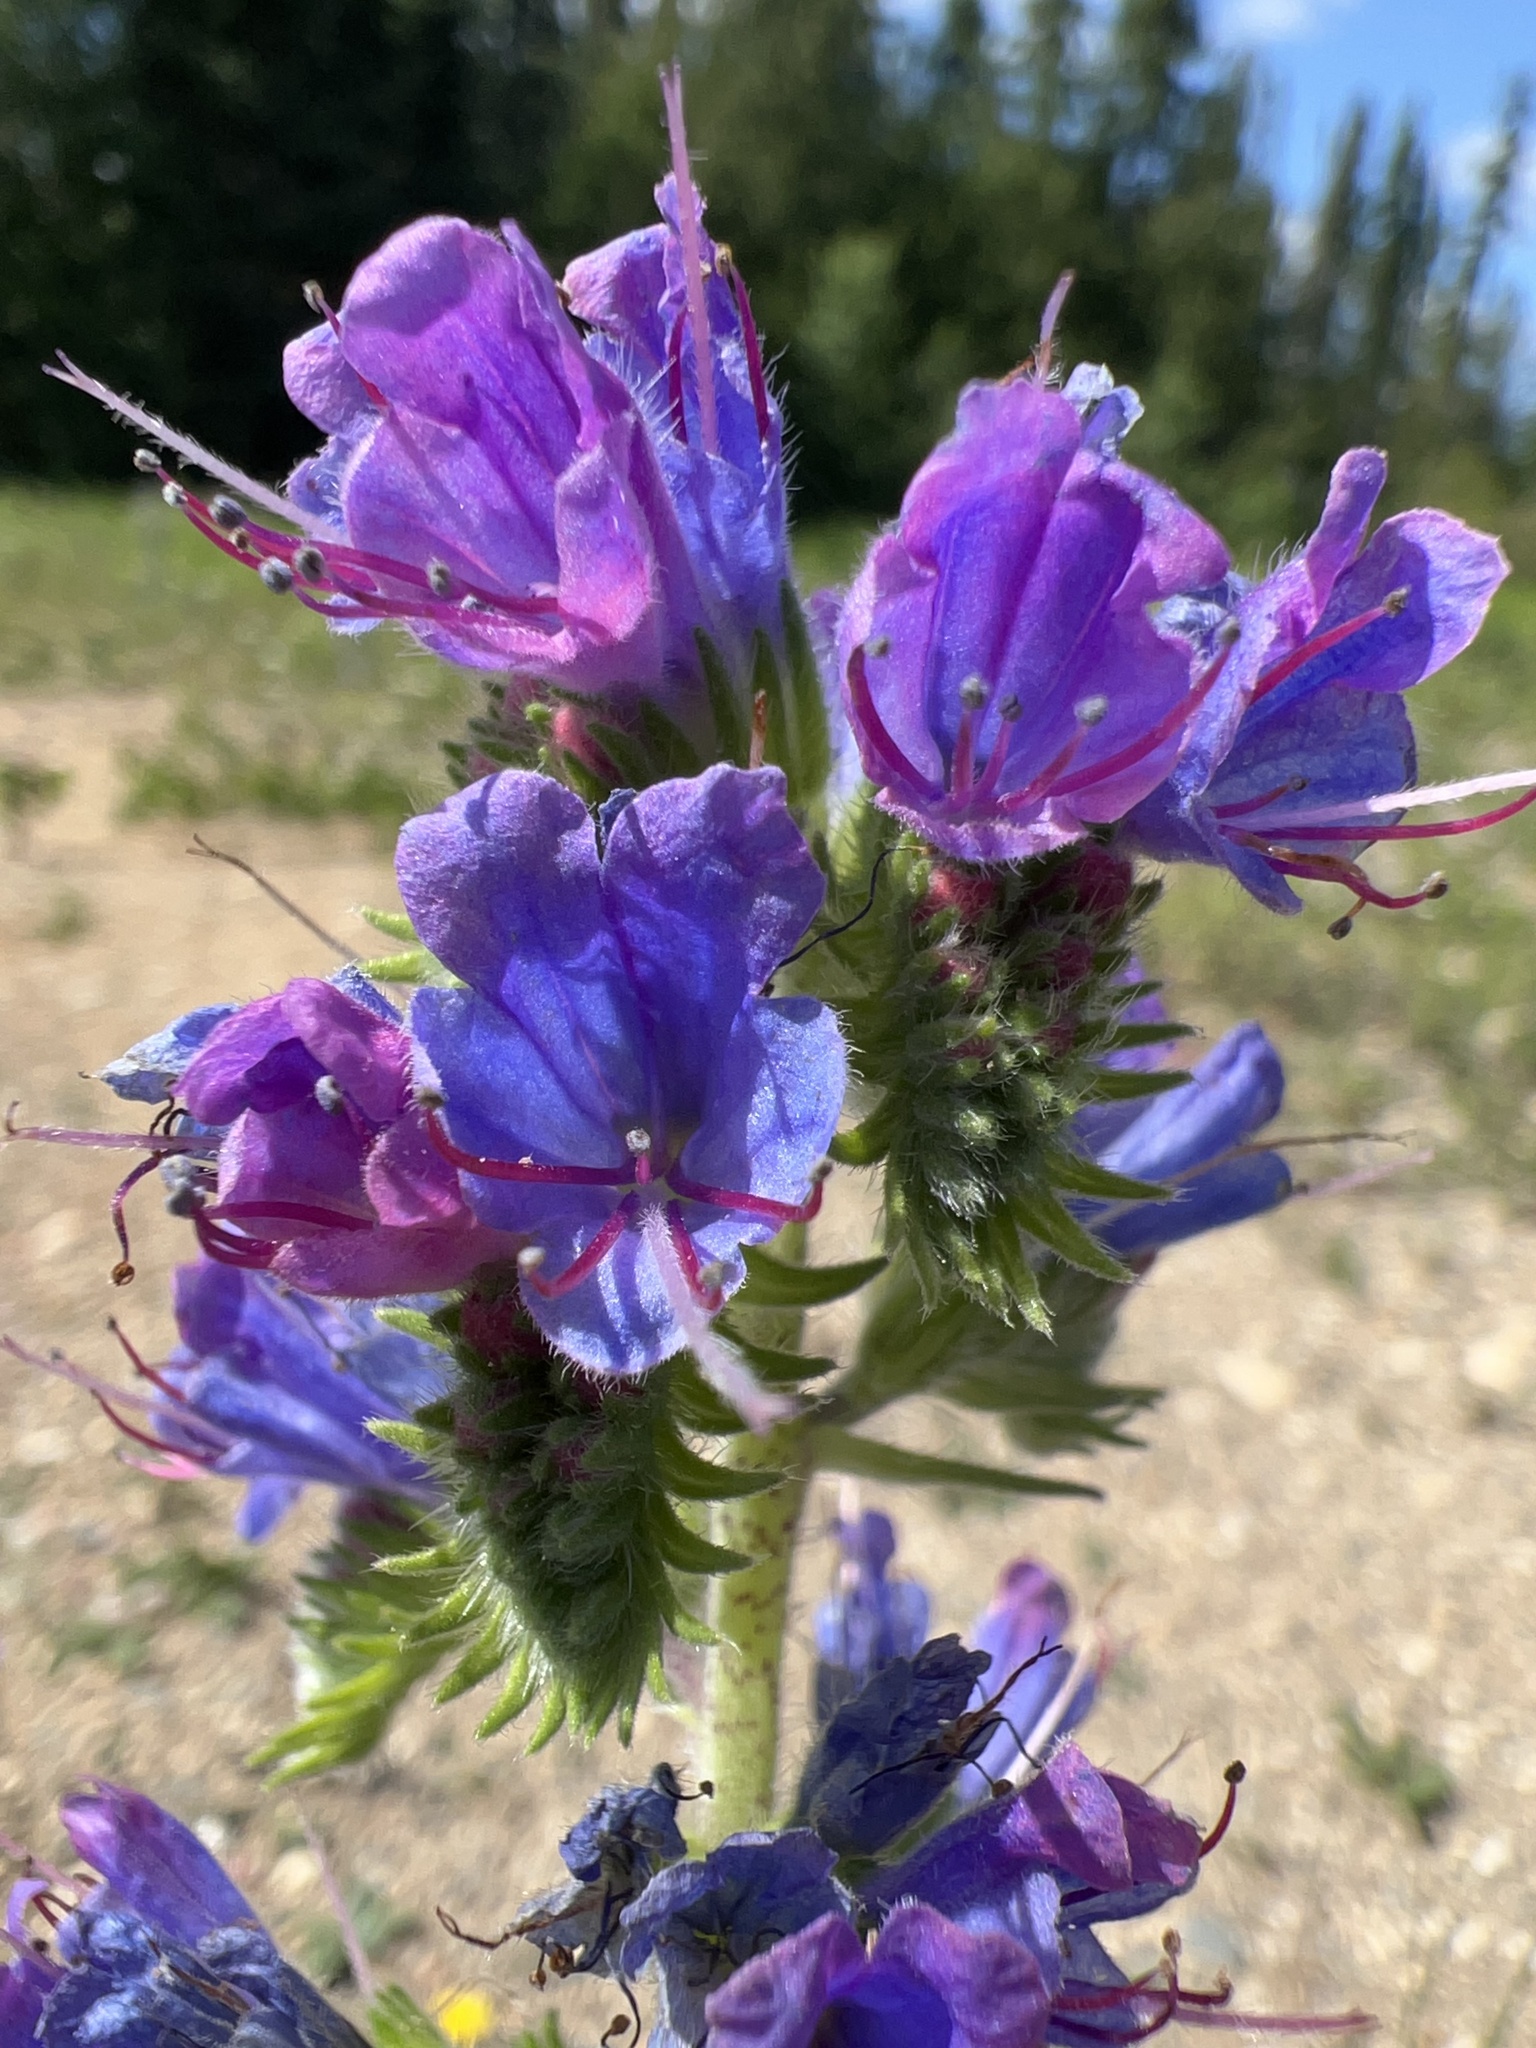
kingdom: Plantae
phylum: Tracheophyta
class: Magnoliopsida
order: Boraginales
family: Boraginaceae
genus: Echium
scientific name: Echium vulgare
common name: Common viper's bugloss
